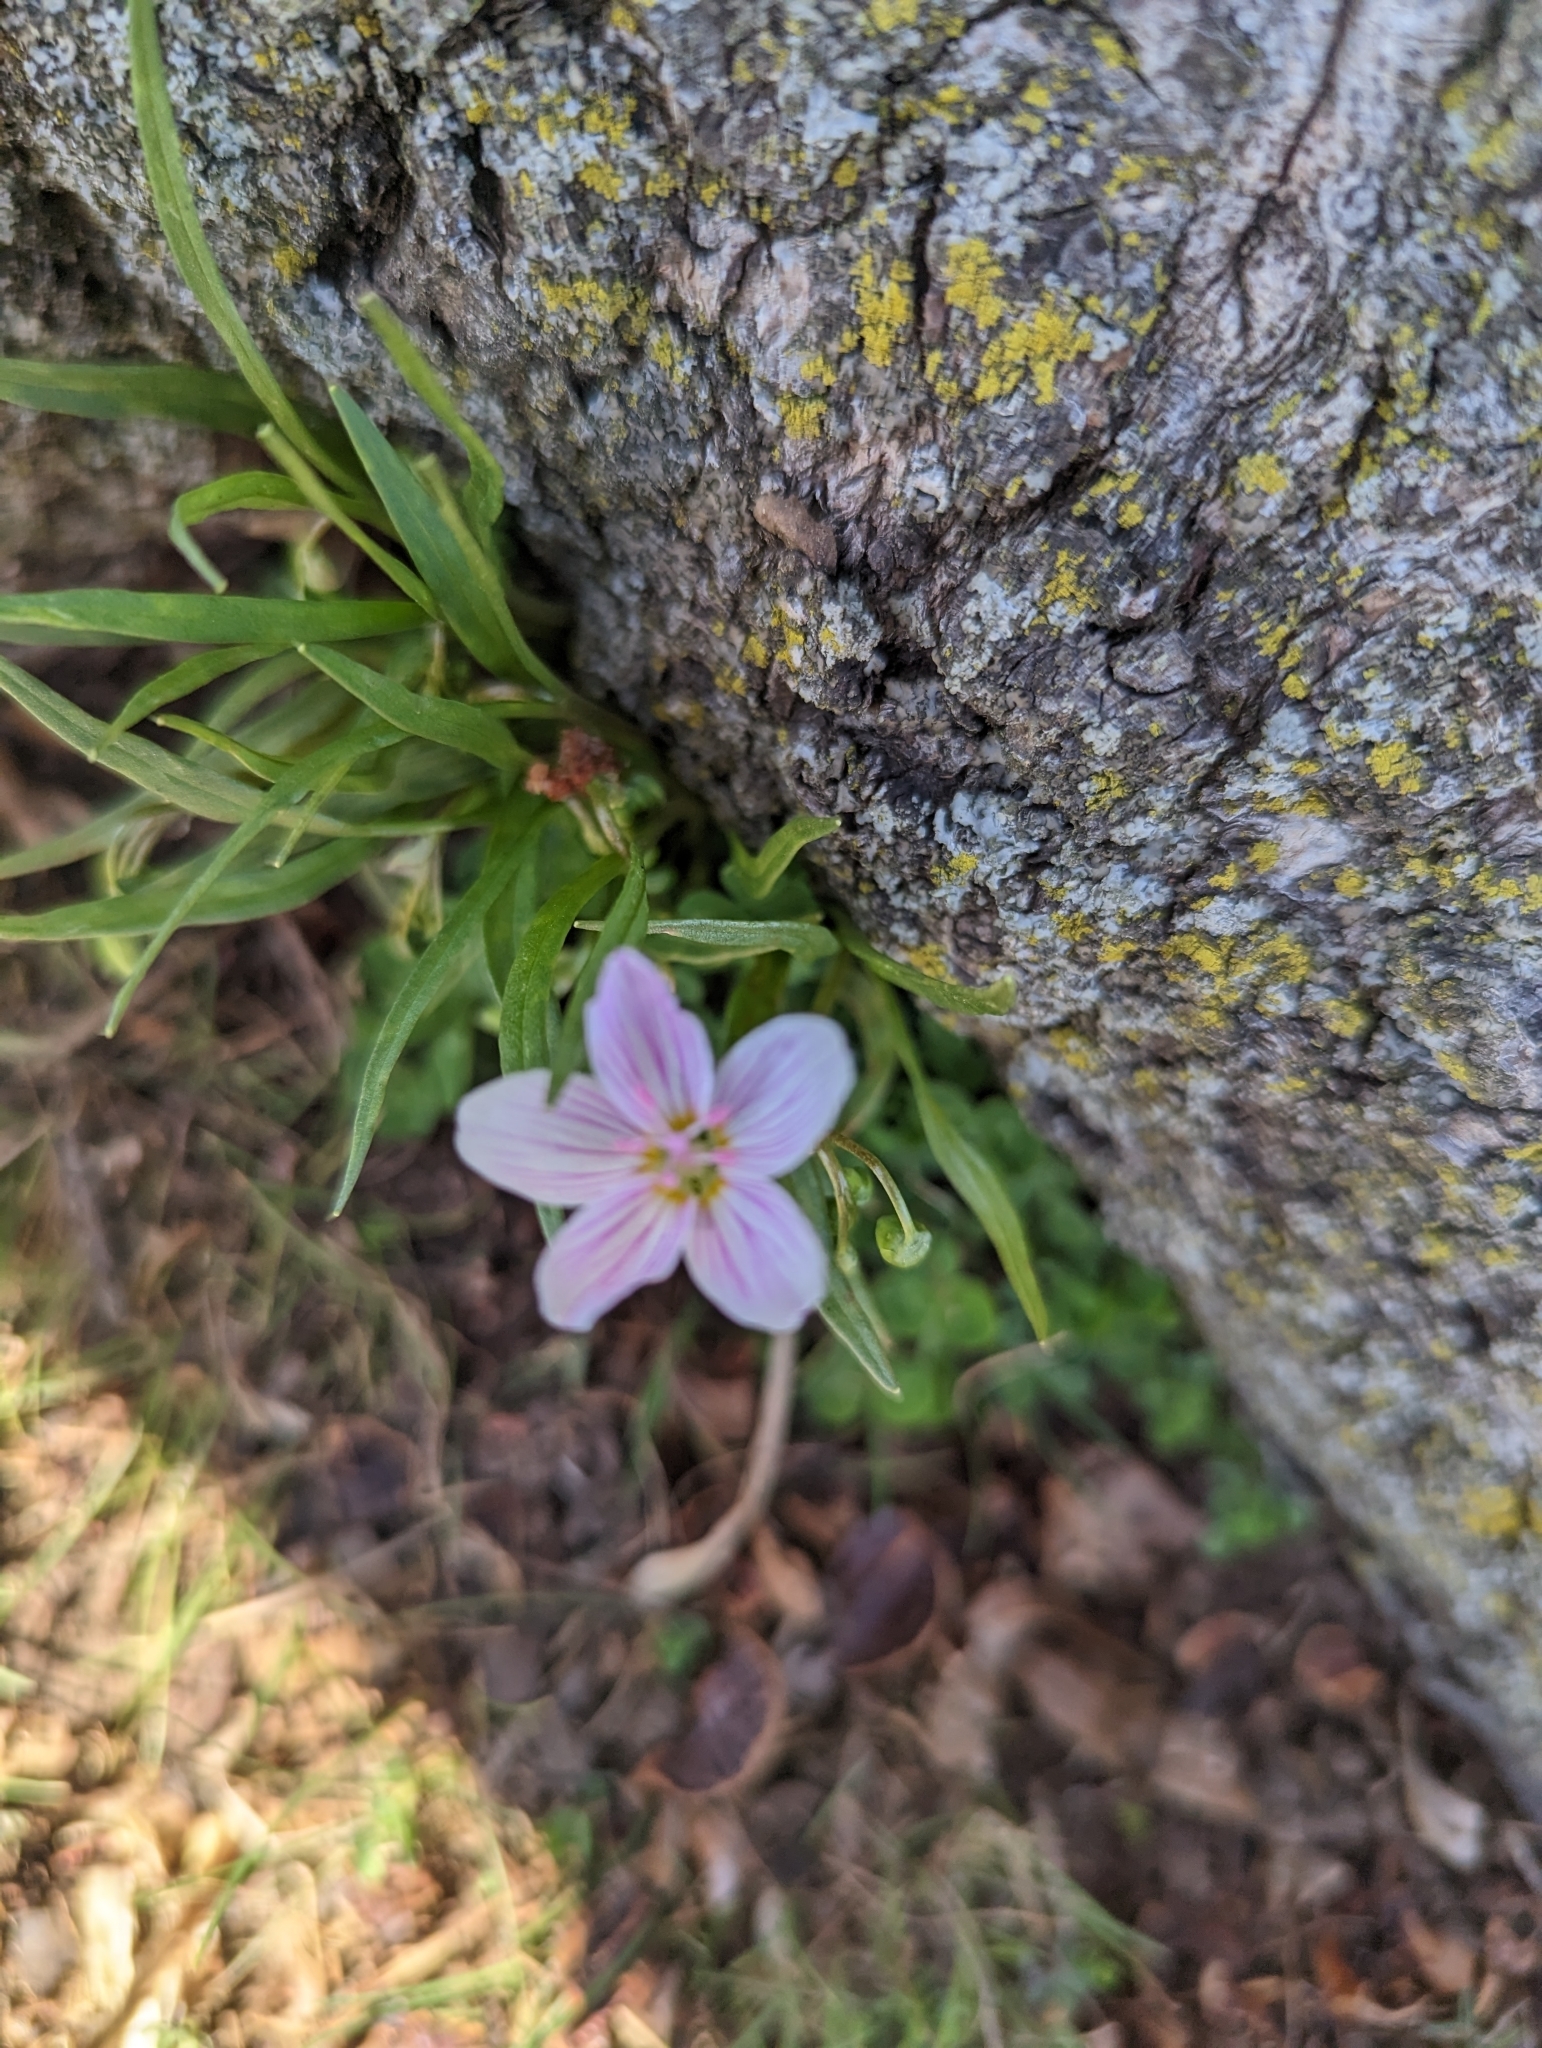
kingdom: Plantae
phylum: Tracheophyta
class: Magnoliopsida
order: Caryophyllales
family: Montiaceae
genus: Claytonia
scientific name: Claytonia virginica
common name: Virginia springbeauty
